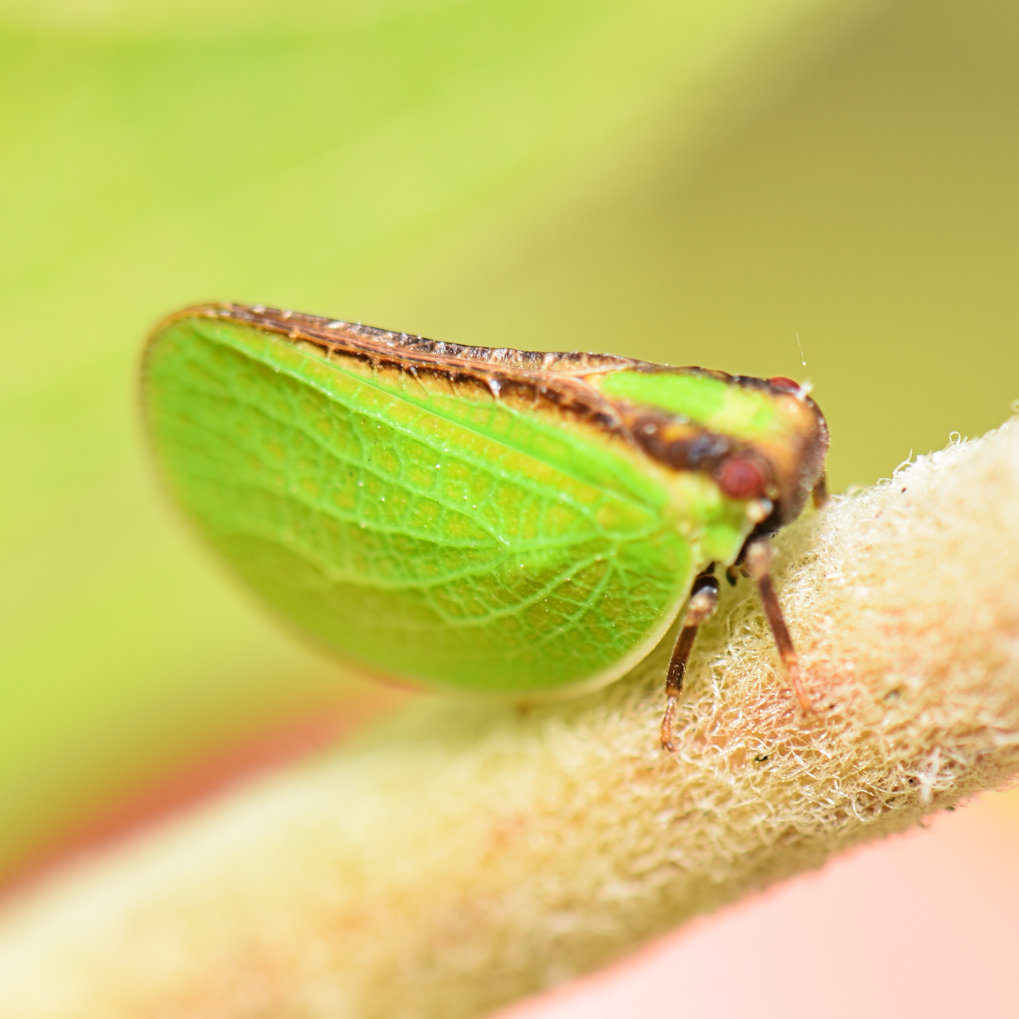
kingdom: Animalia
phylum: Arthropoda
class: Insecta
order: Hemiptera
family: Acanaloniidae
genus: Acanalonia
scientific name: Acanalonia bivittata
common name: Two-striped planthopper
